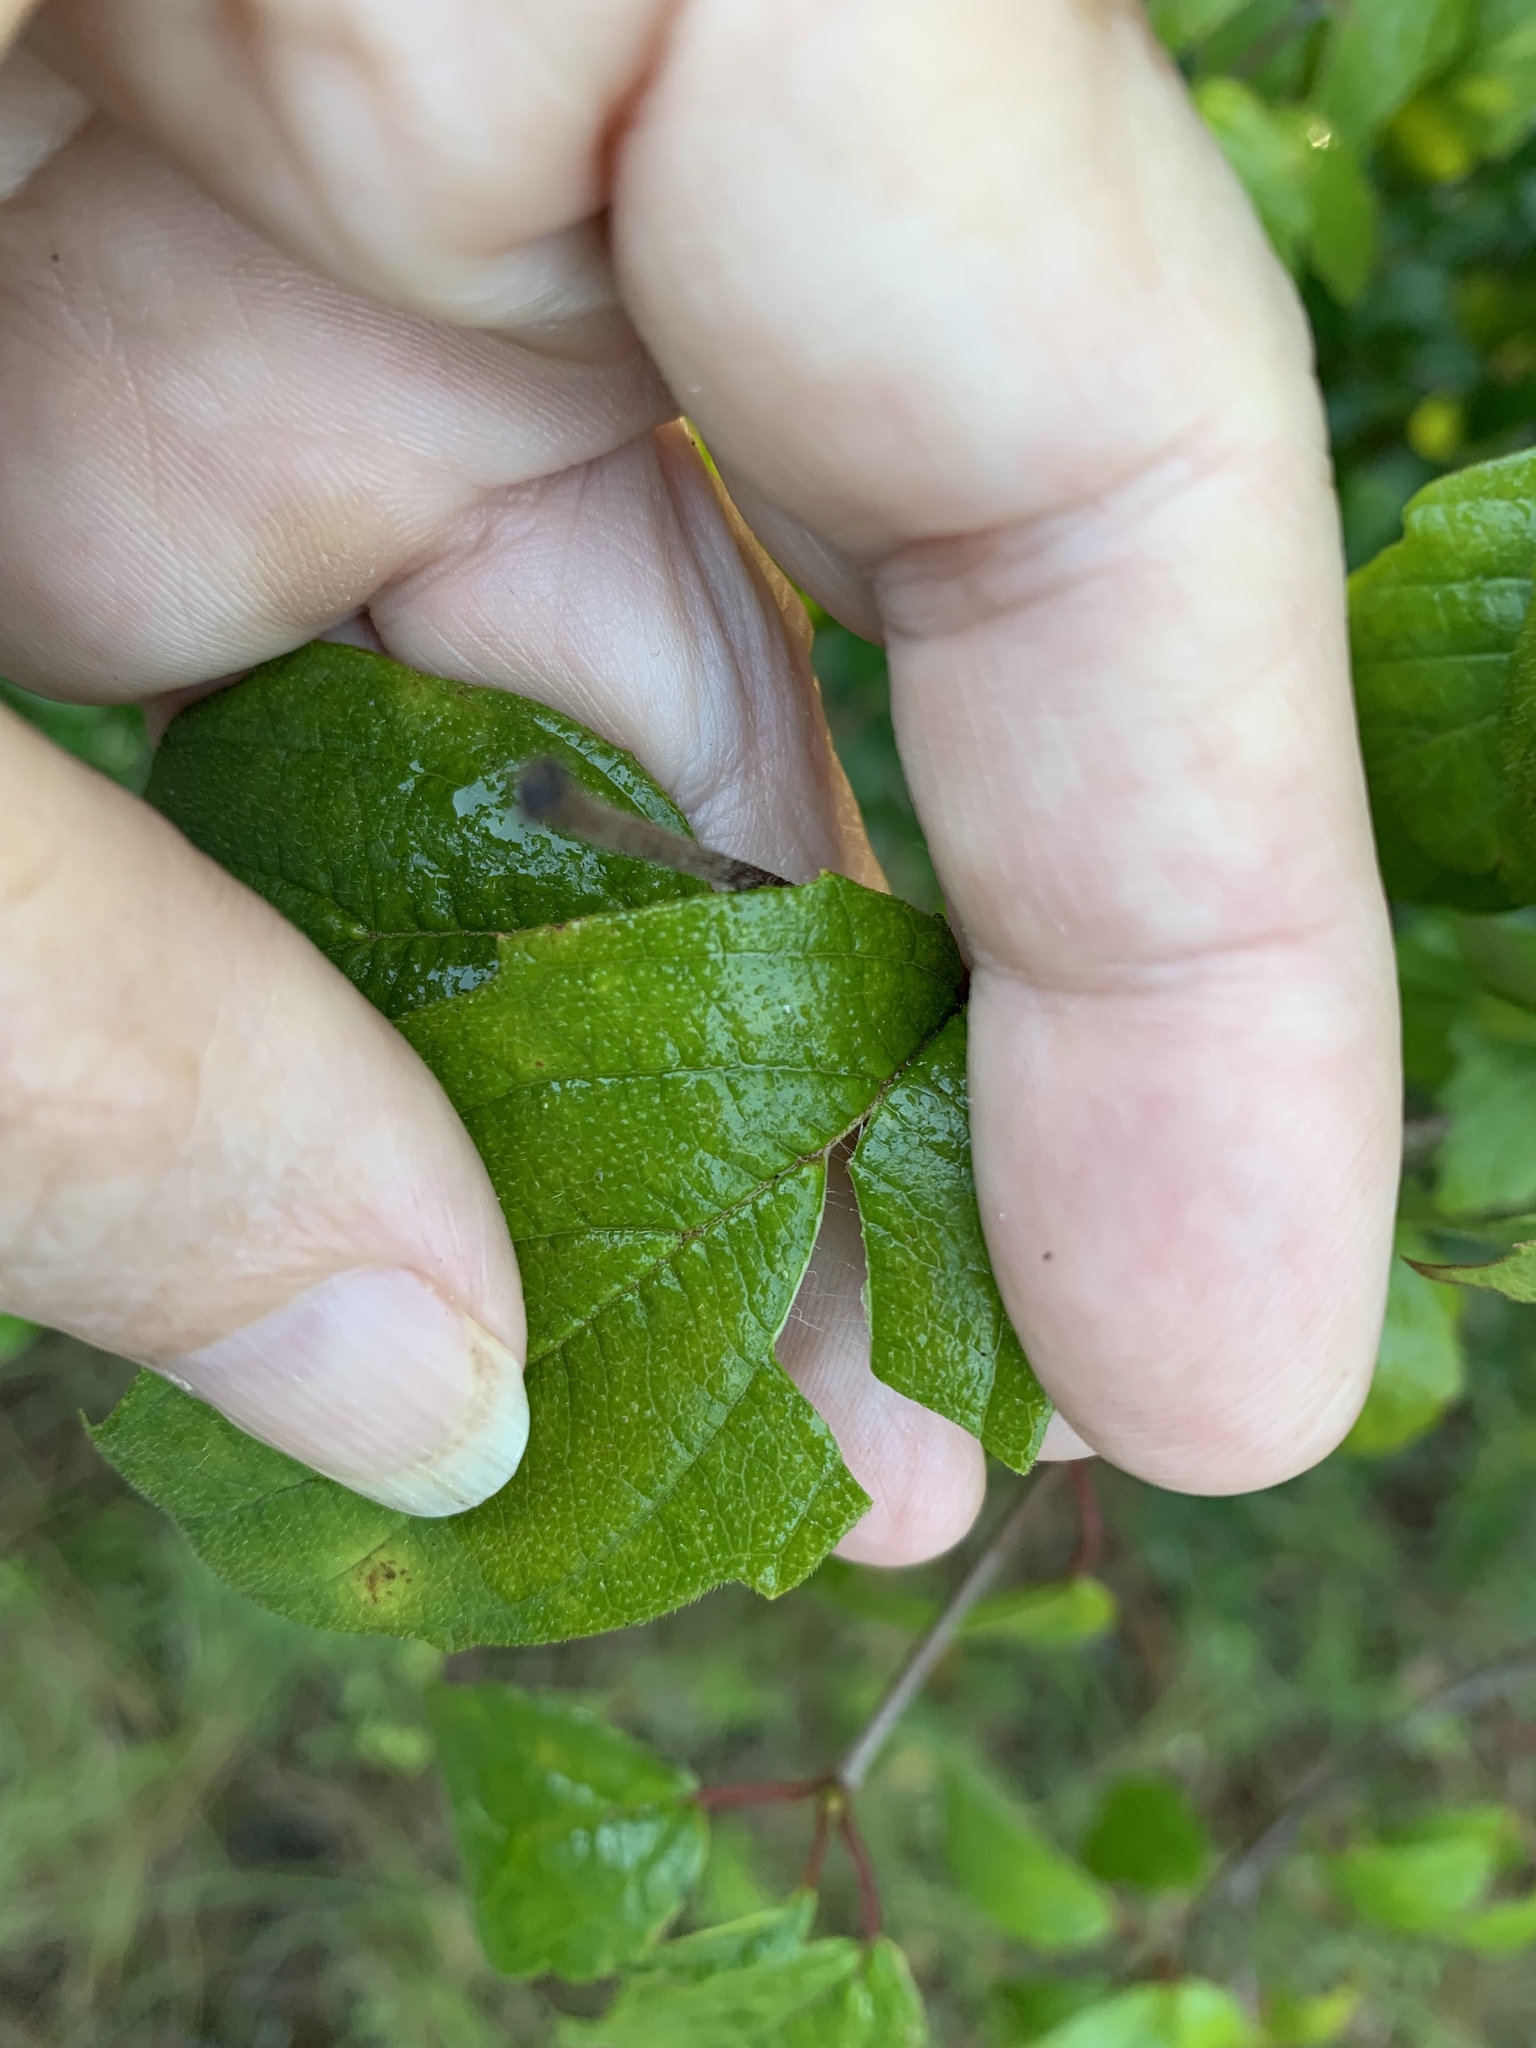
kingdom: Plantae
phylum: Tracheophyta
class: Magnoliopsida
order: Dipsacales
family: Viburnaceae
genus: Viburnum
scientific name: Viburnum scabrellum
